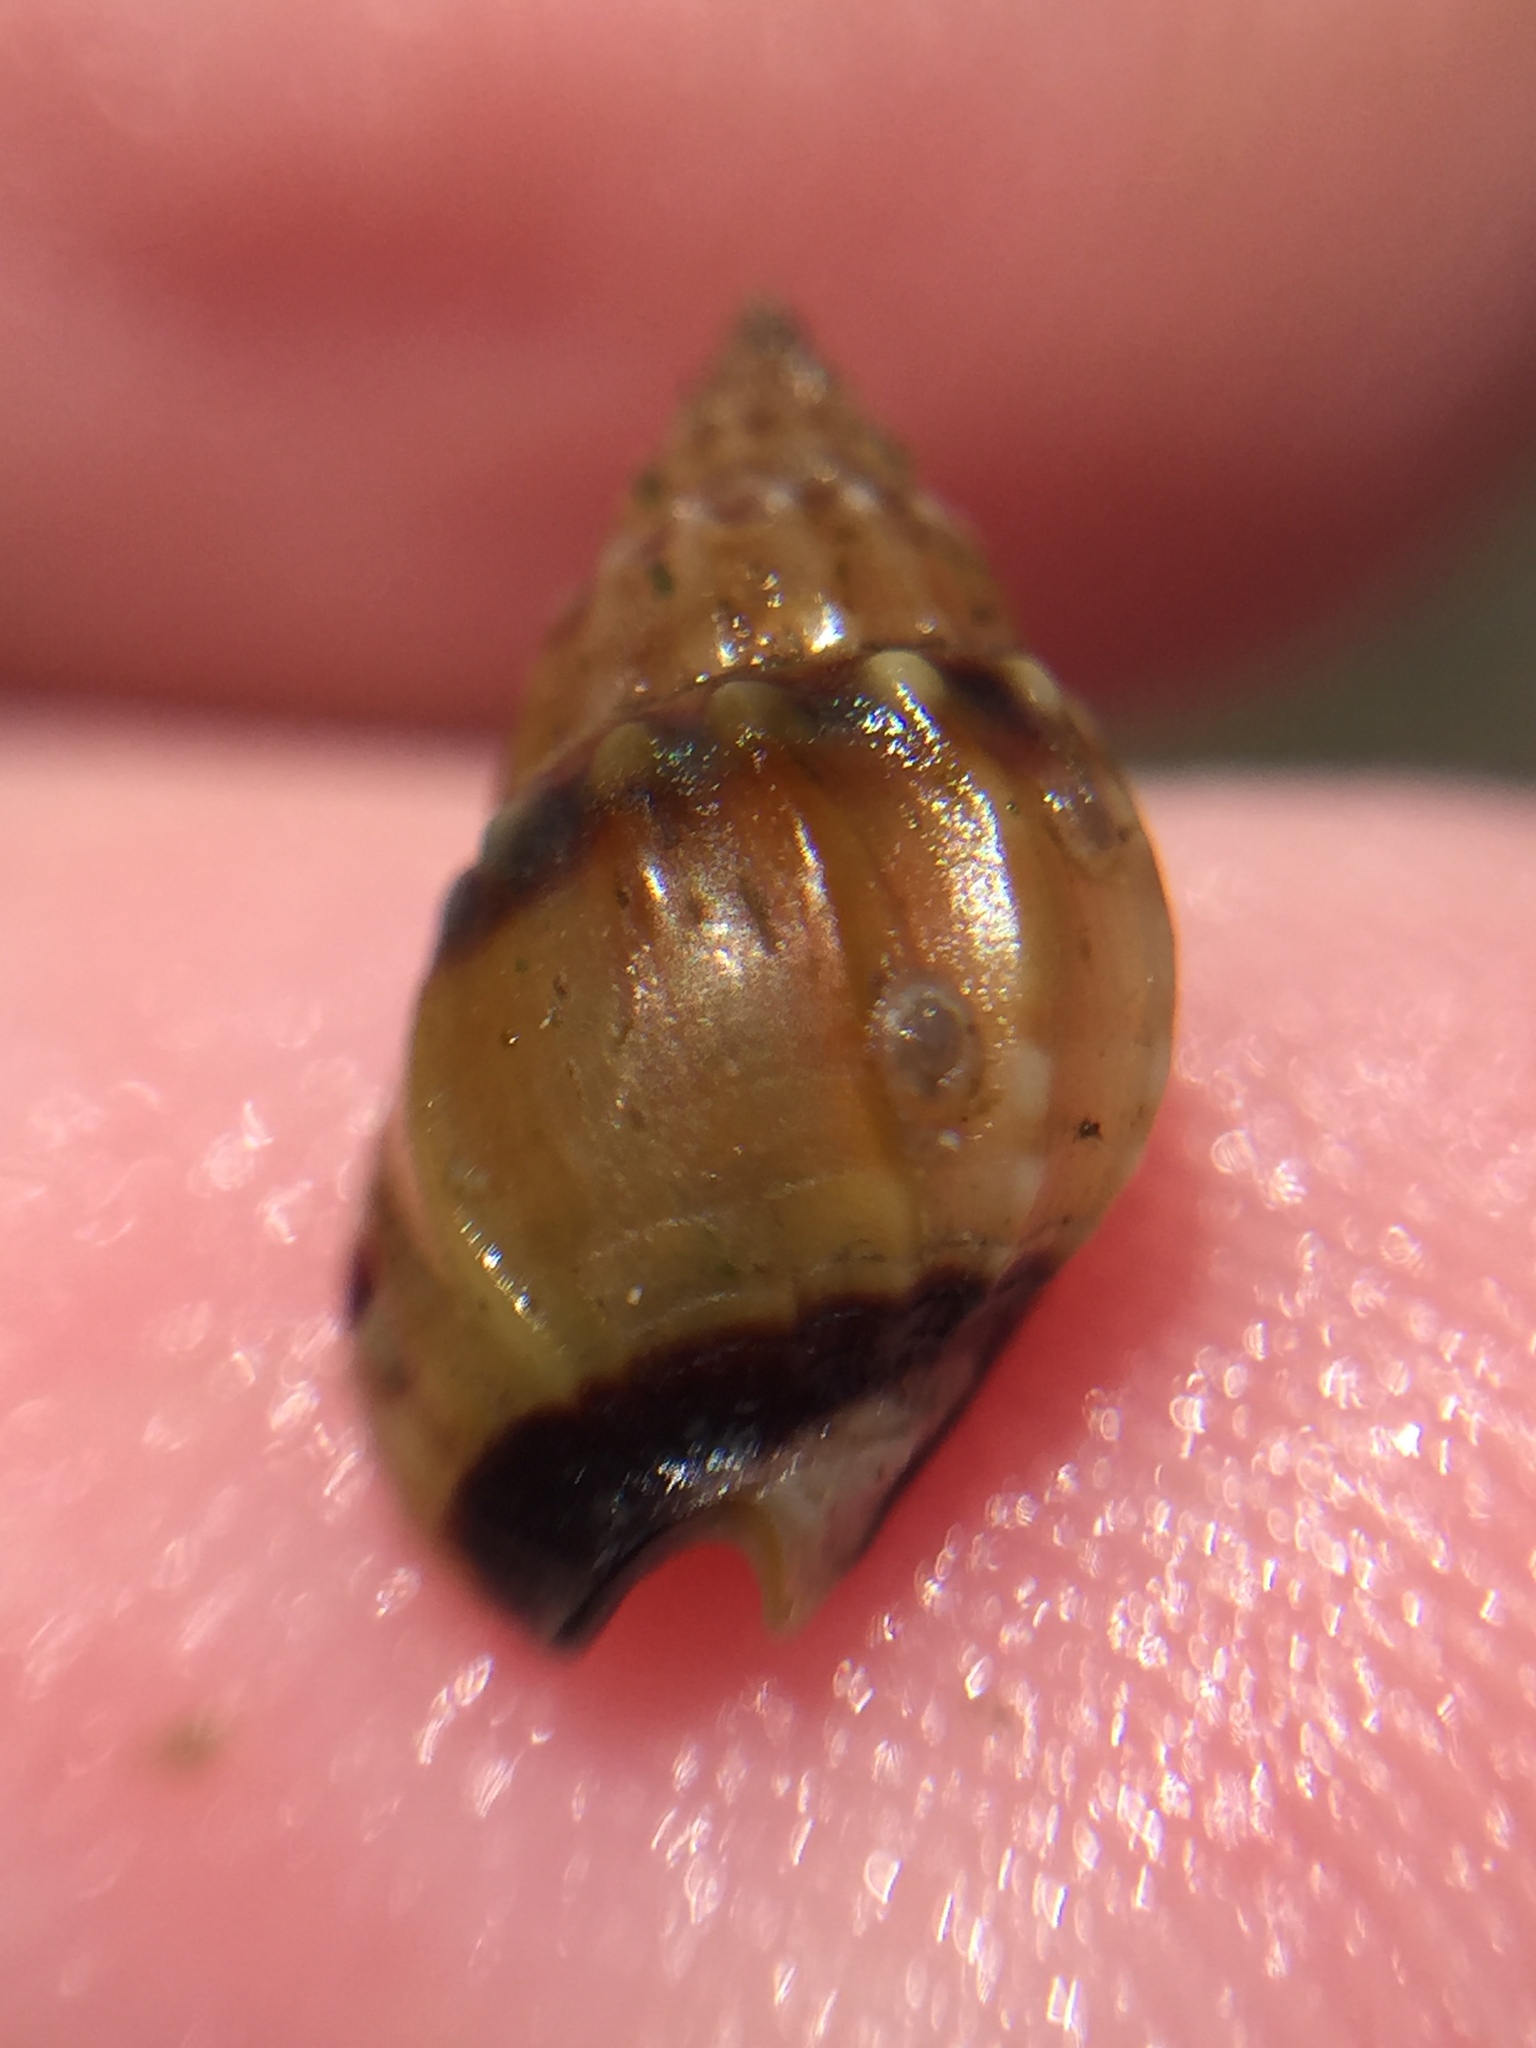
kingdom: Animalia
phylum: Mollusca
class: Gastropoda
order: Neogastropoda
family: Nassariidae
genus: Tritia
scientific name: Tritia burchardi
